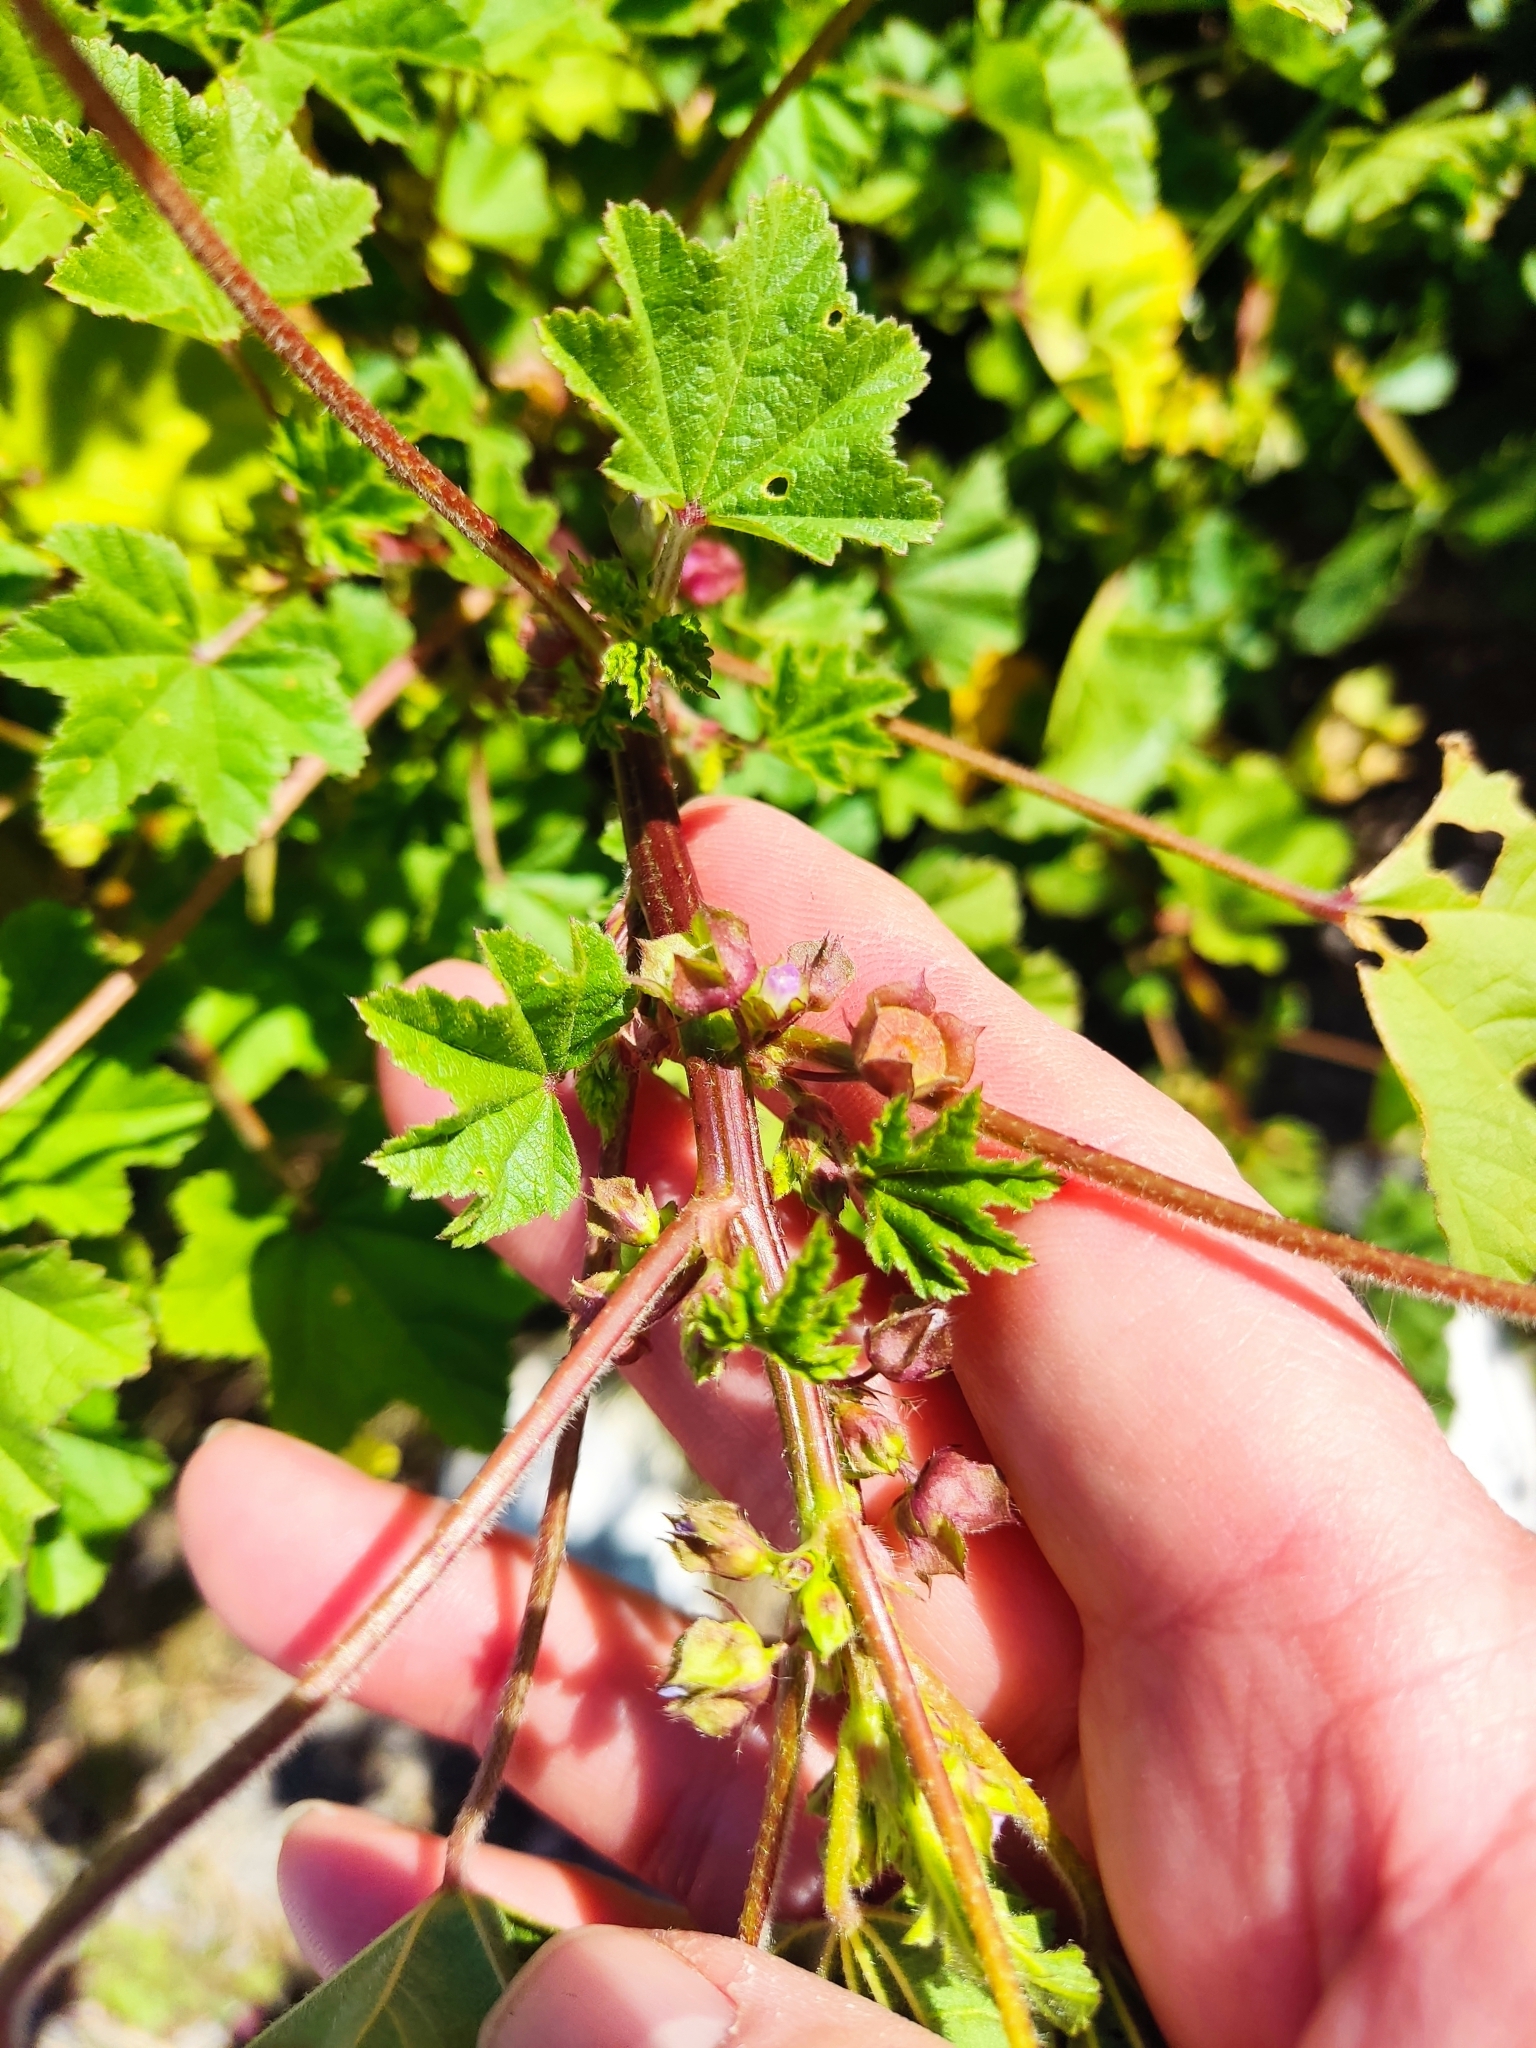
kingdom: Plantae
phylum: Tracheophyta
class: Magnoliopsida
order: Malvales
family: Malvaceae
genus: Malva
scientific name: Malva parviflora
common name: Least mallow
